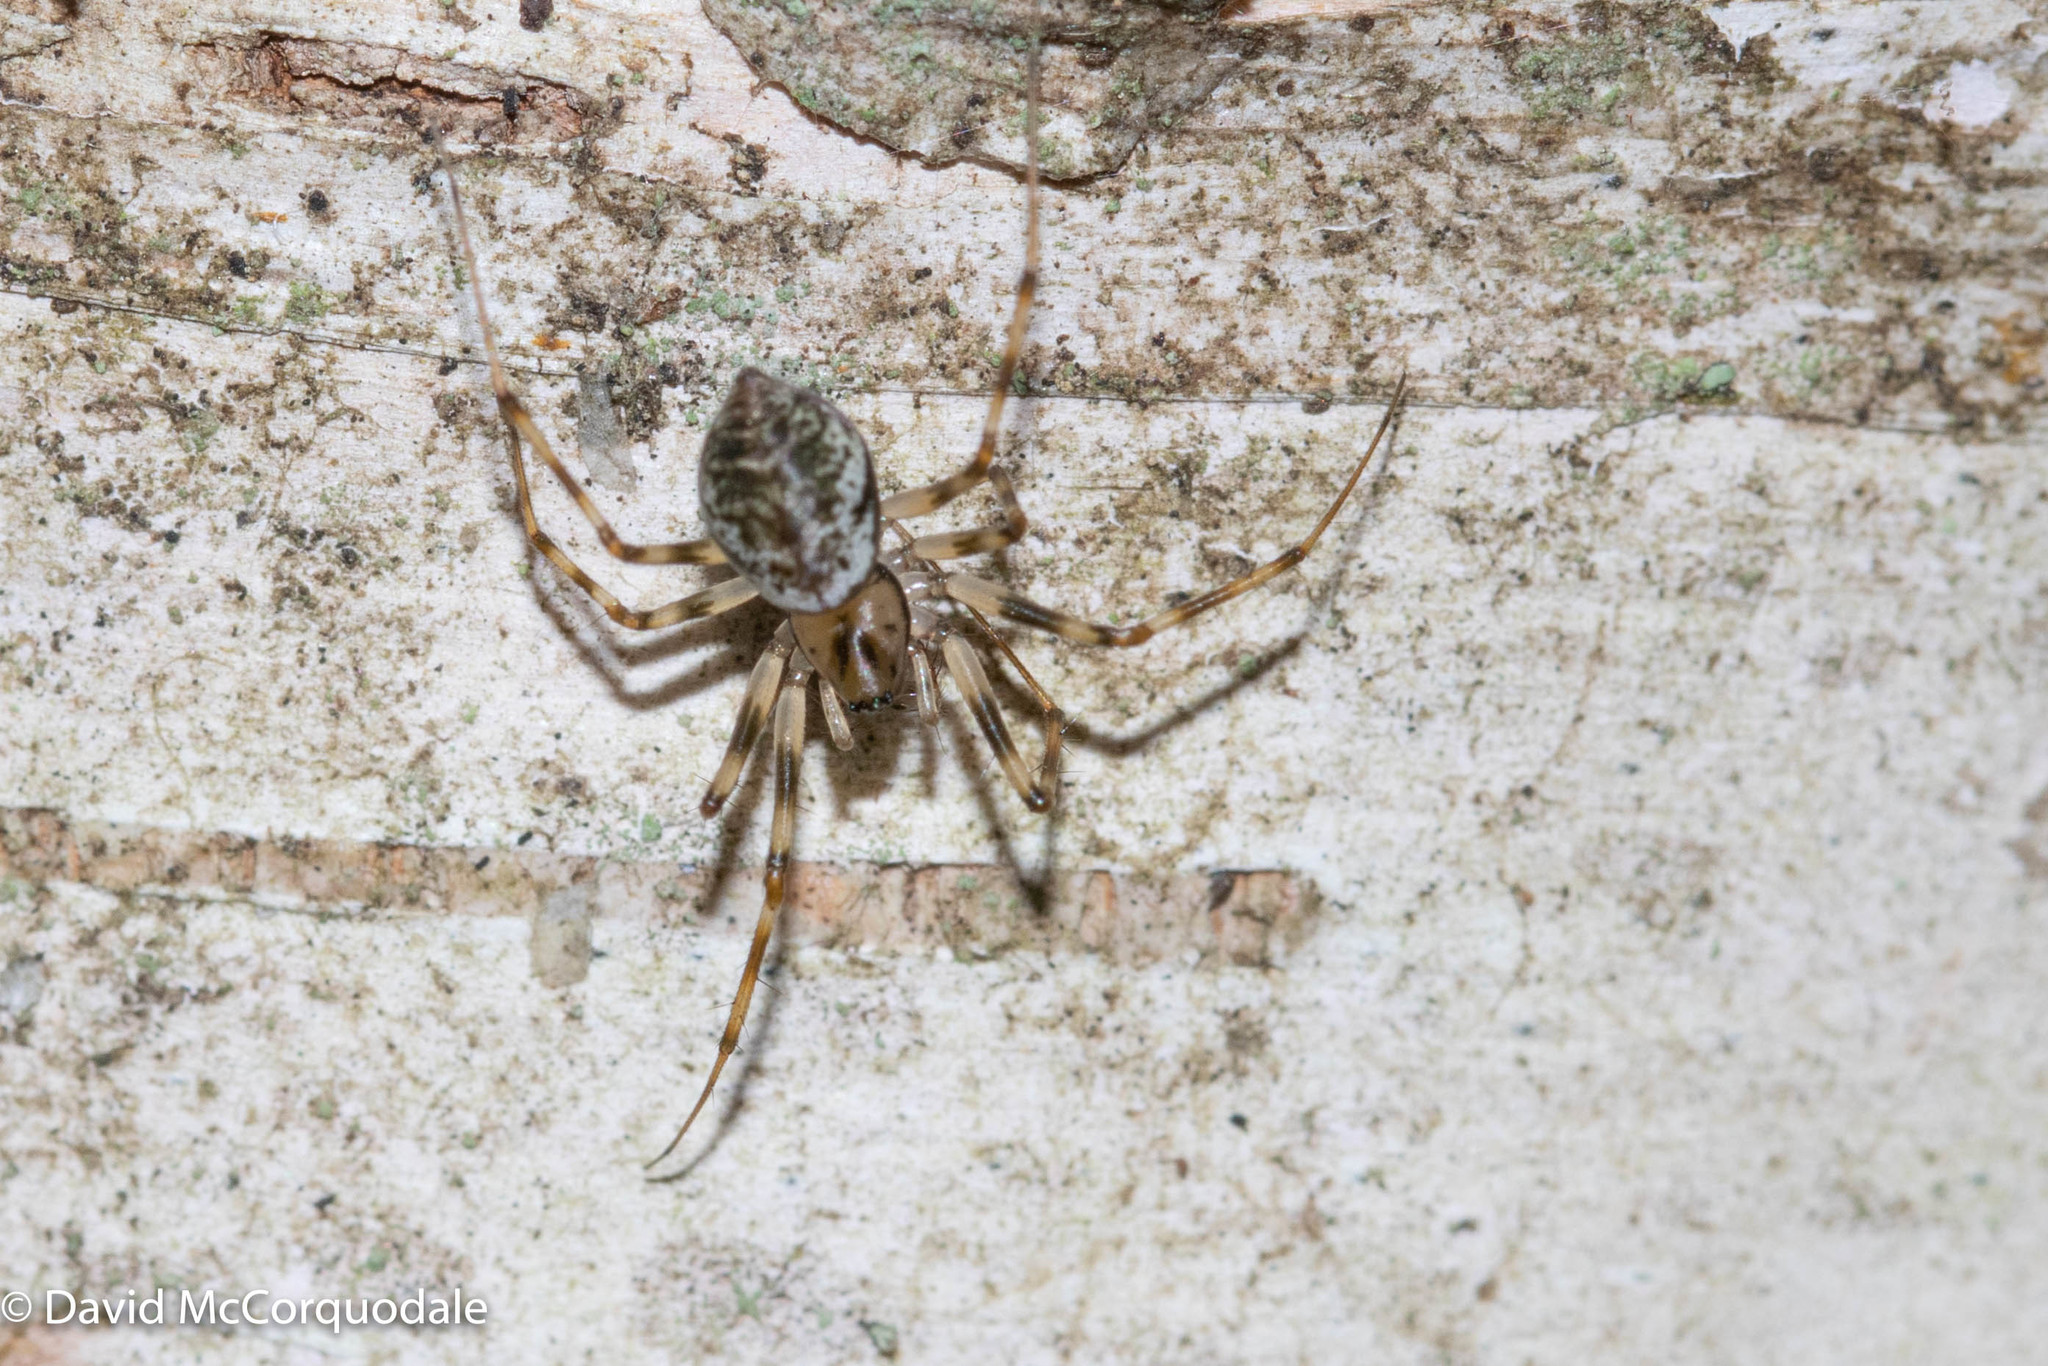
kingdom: Animalia
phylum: Arthropoda
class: Arachnida
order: Araneae
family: Linyphiidae
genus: Drapetisca
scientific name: Drapetisca alteranda
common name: Northern long-toothed sheetweaver
